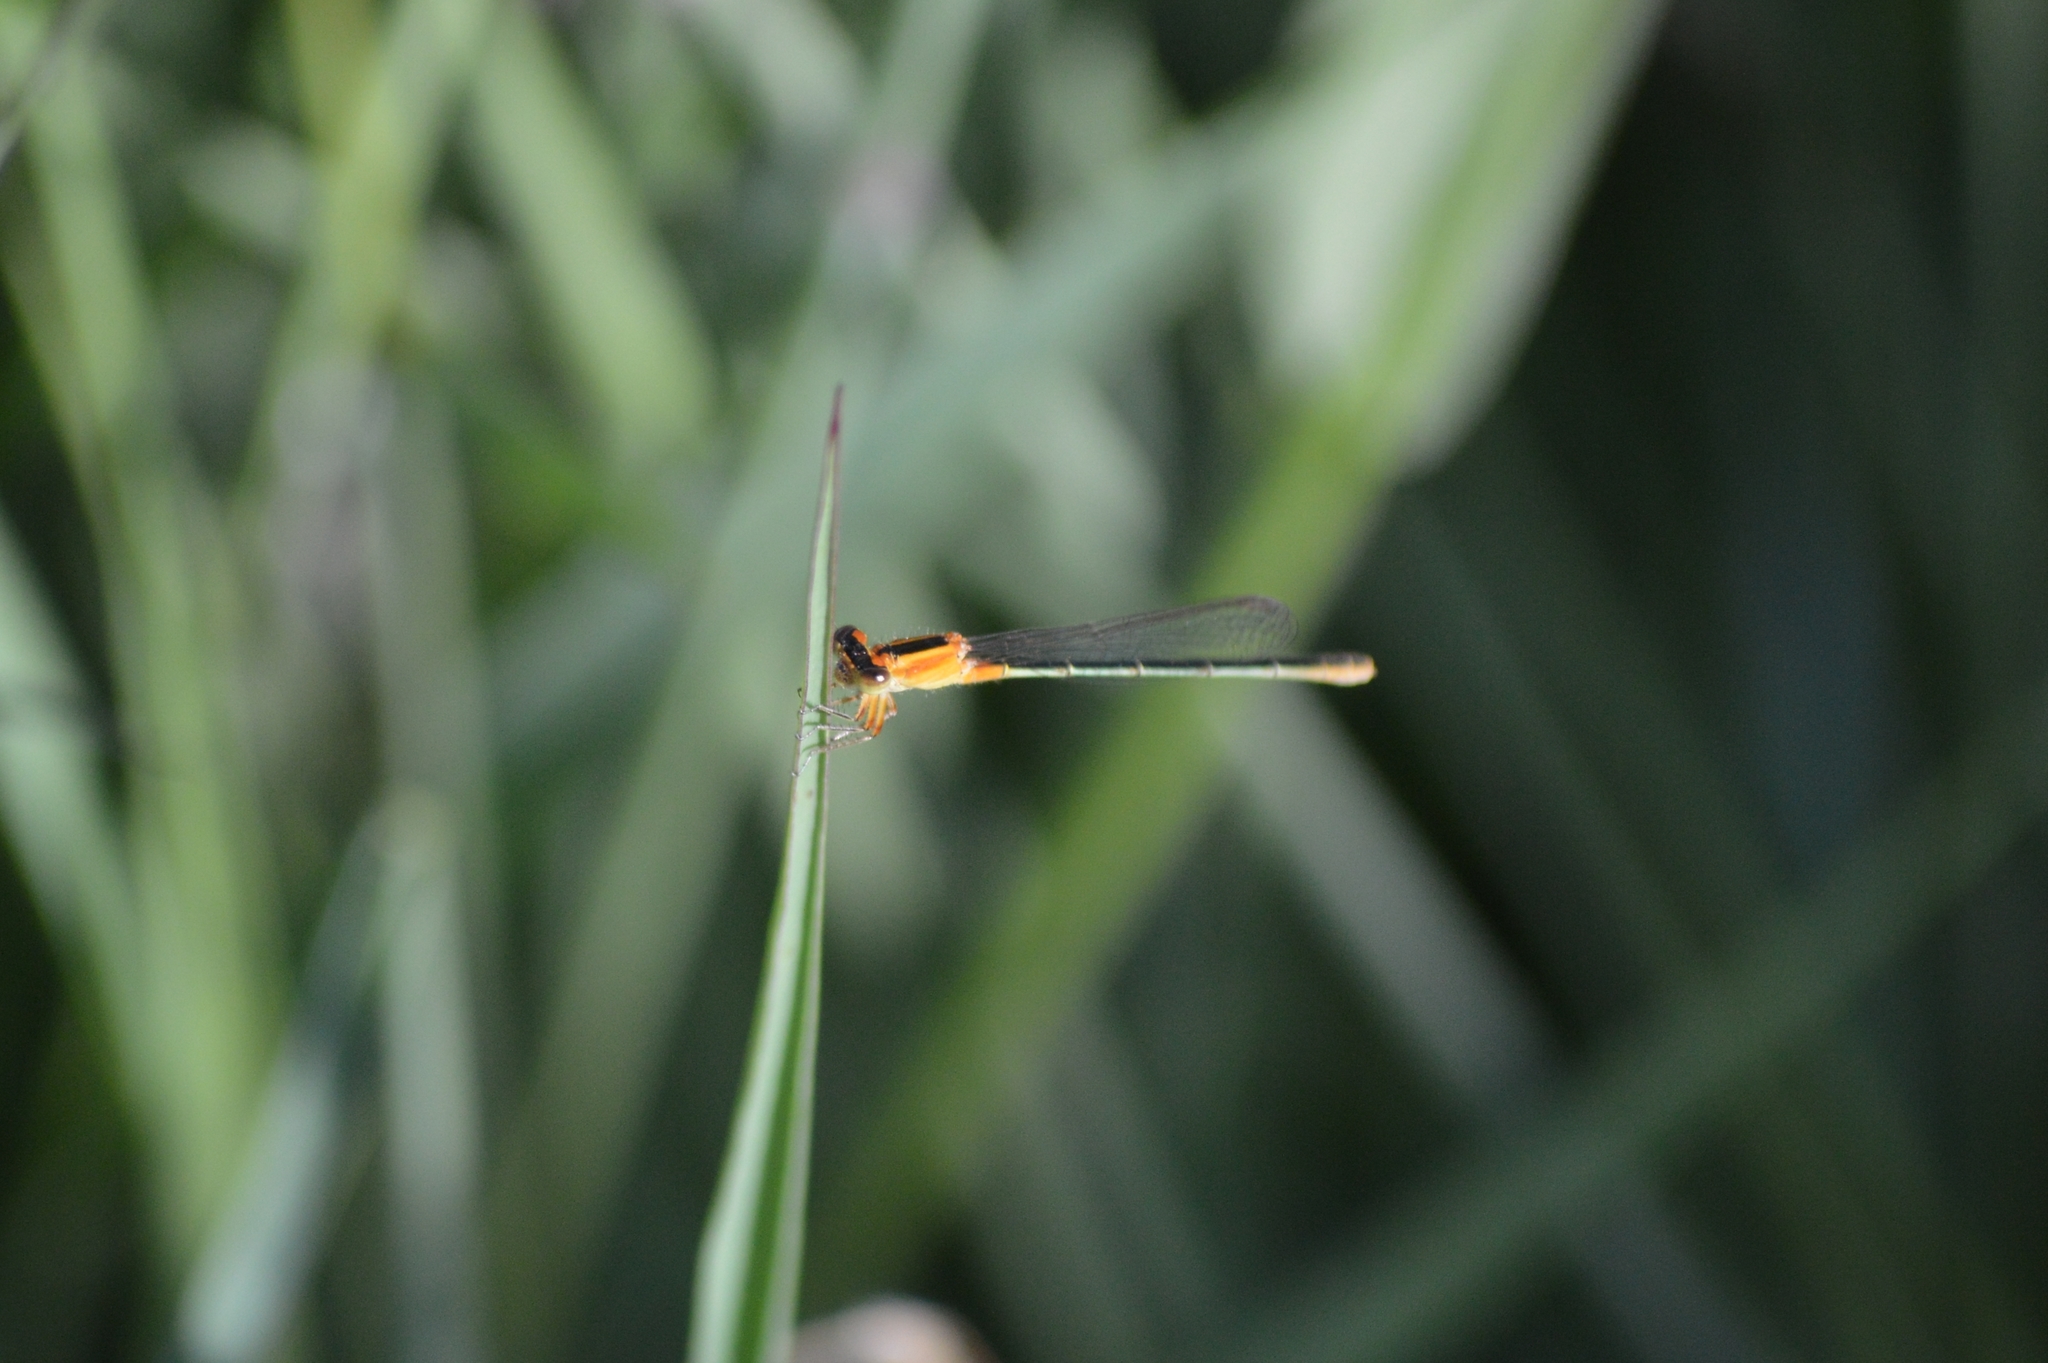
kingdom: Animalia
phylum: Arthropoda
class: Insecta
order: Odonata
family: Coenagrionidae
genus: Ischnura
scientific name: Ischnura fluviatilis
